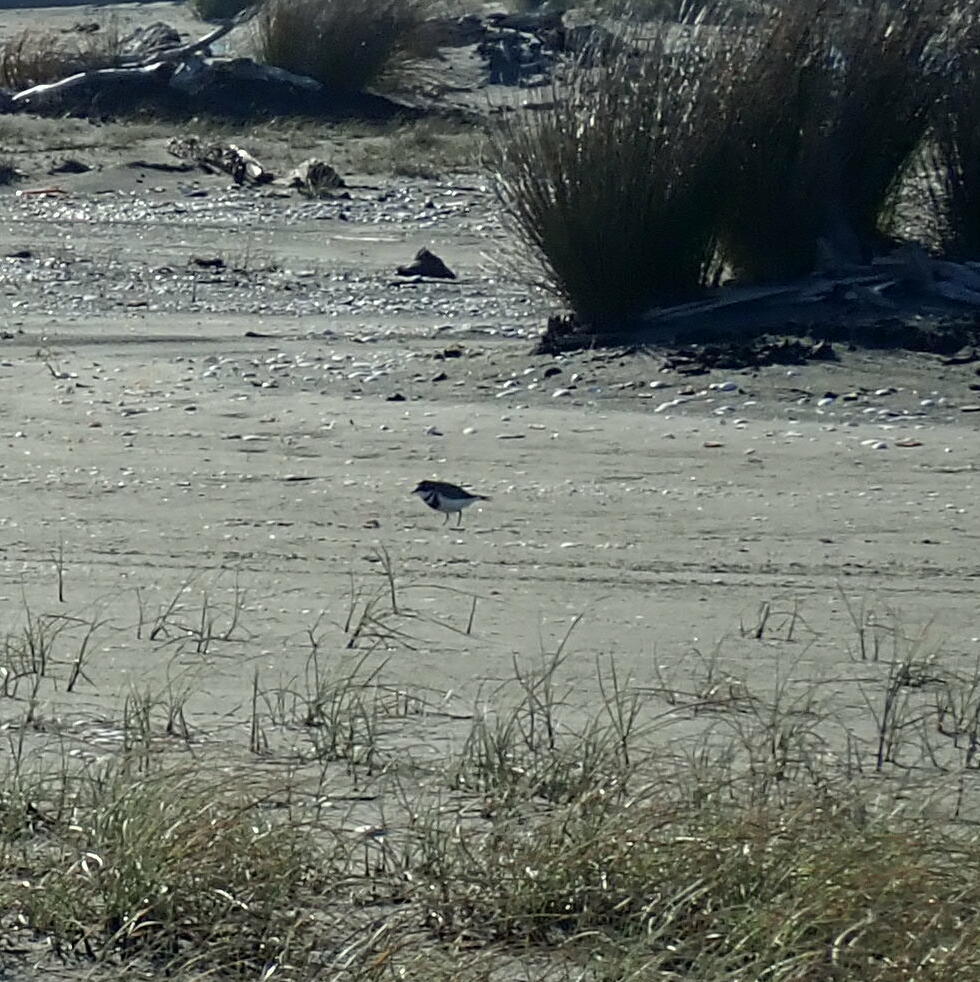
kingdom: Animalia
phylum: Chordata
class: Aves
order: Charadriiformes
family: Charadriidae
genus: Anarhynchus
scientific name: Anarhynchus
